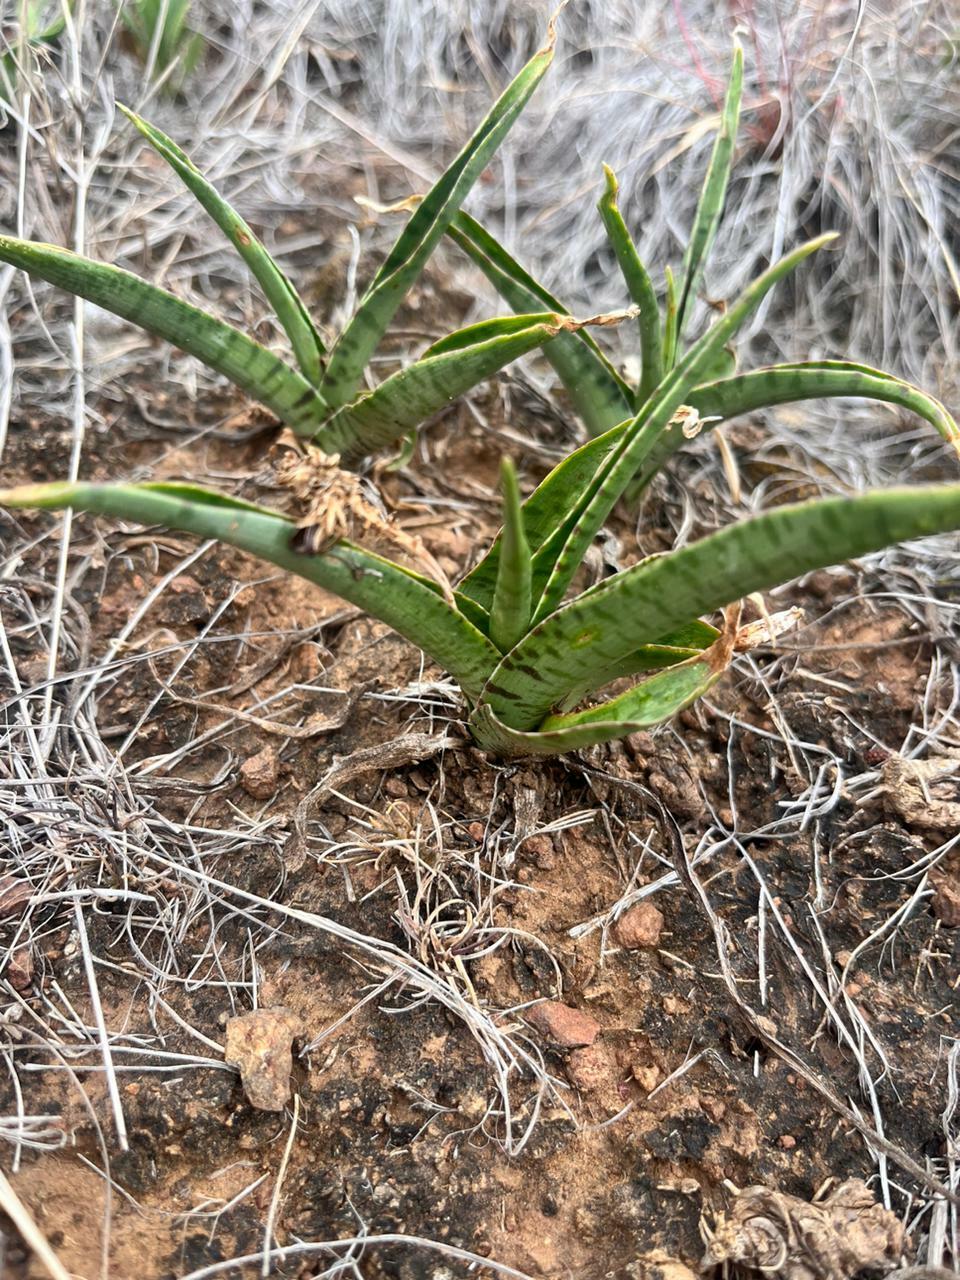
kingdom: Plantae
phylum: Tracheophyta
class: Liliopsida
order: Asparagales
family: Asparagaceae
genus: Ledebouria
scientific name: Ledebouria luteola
